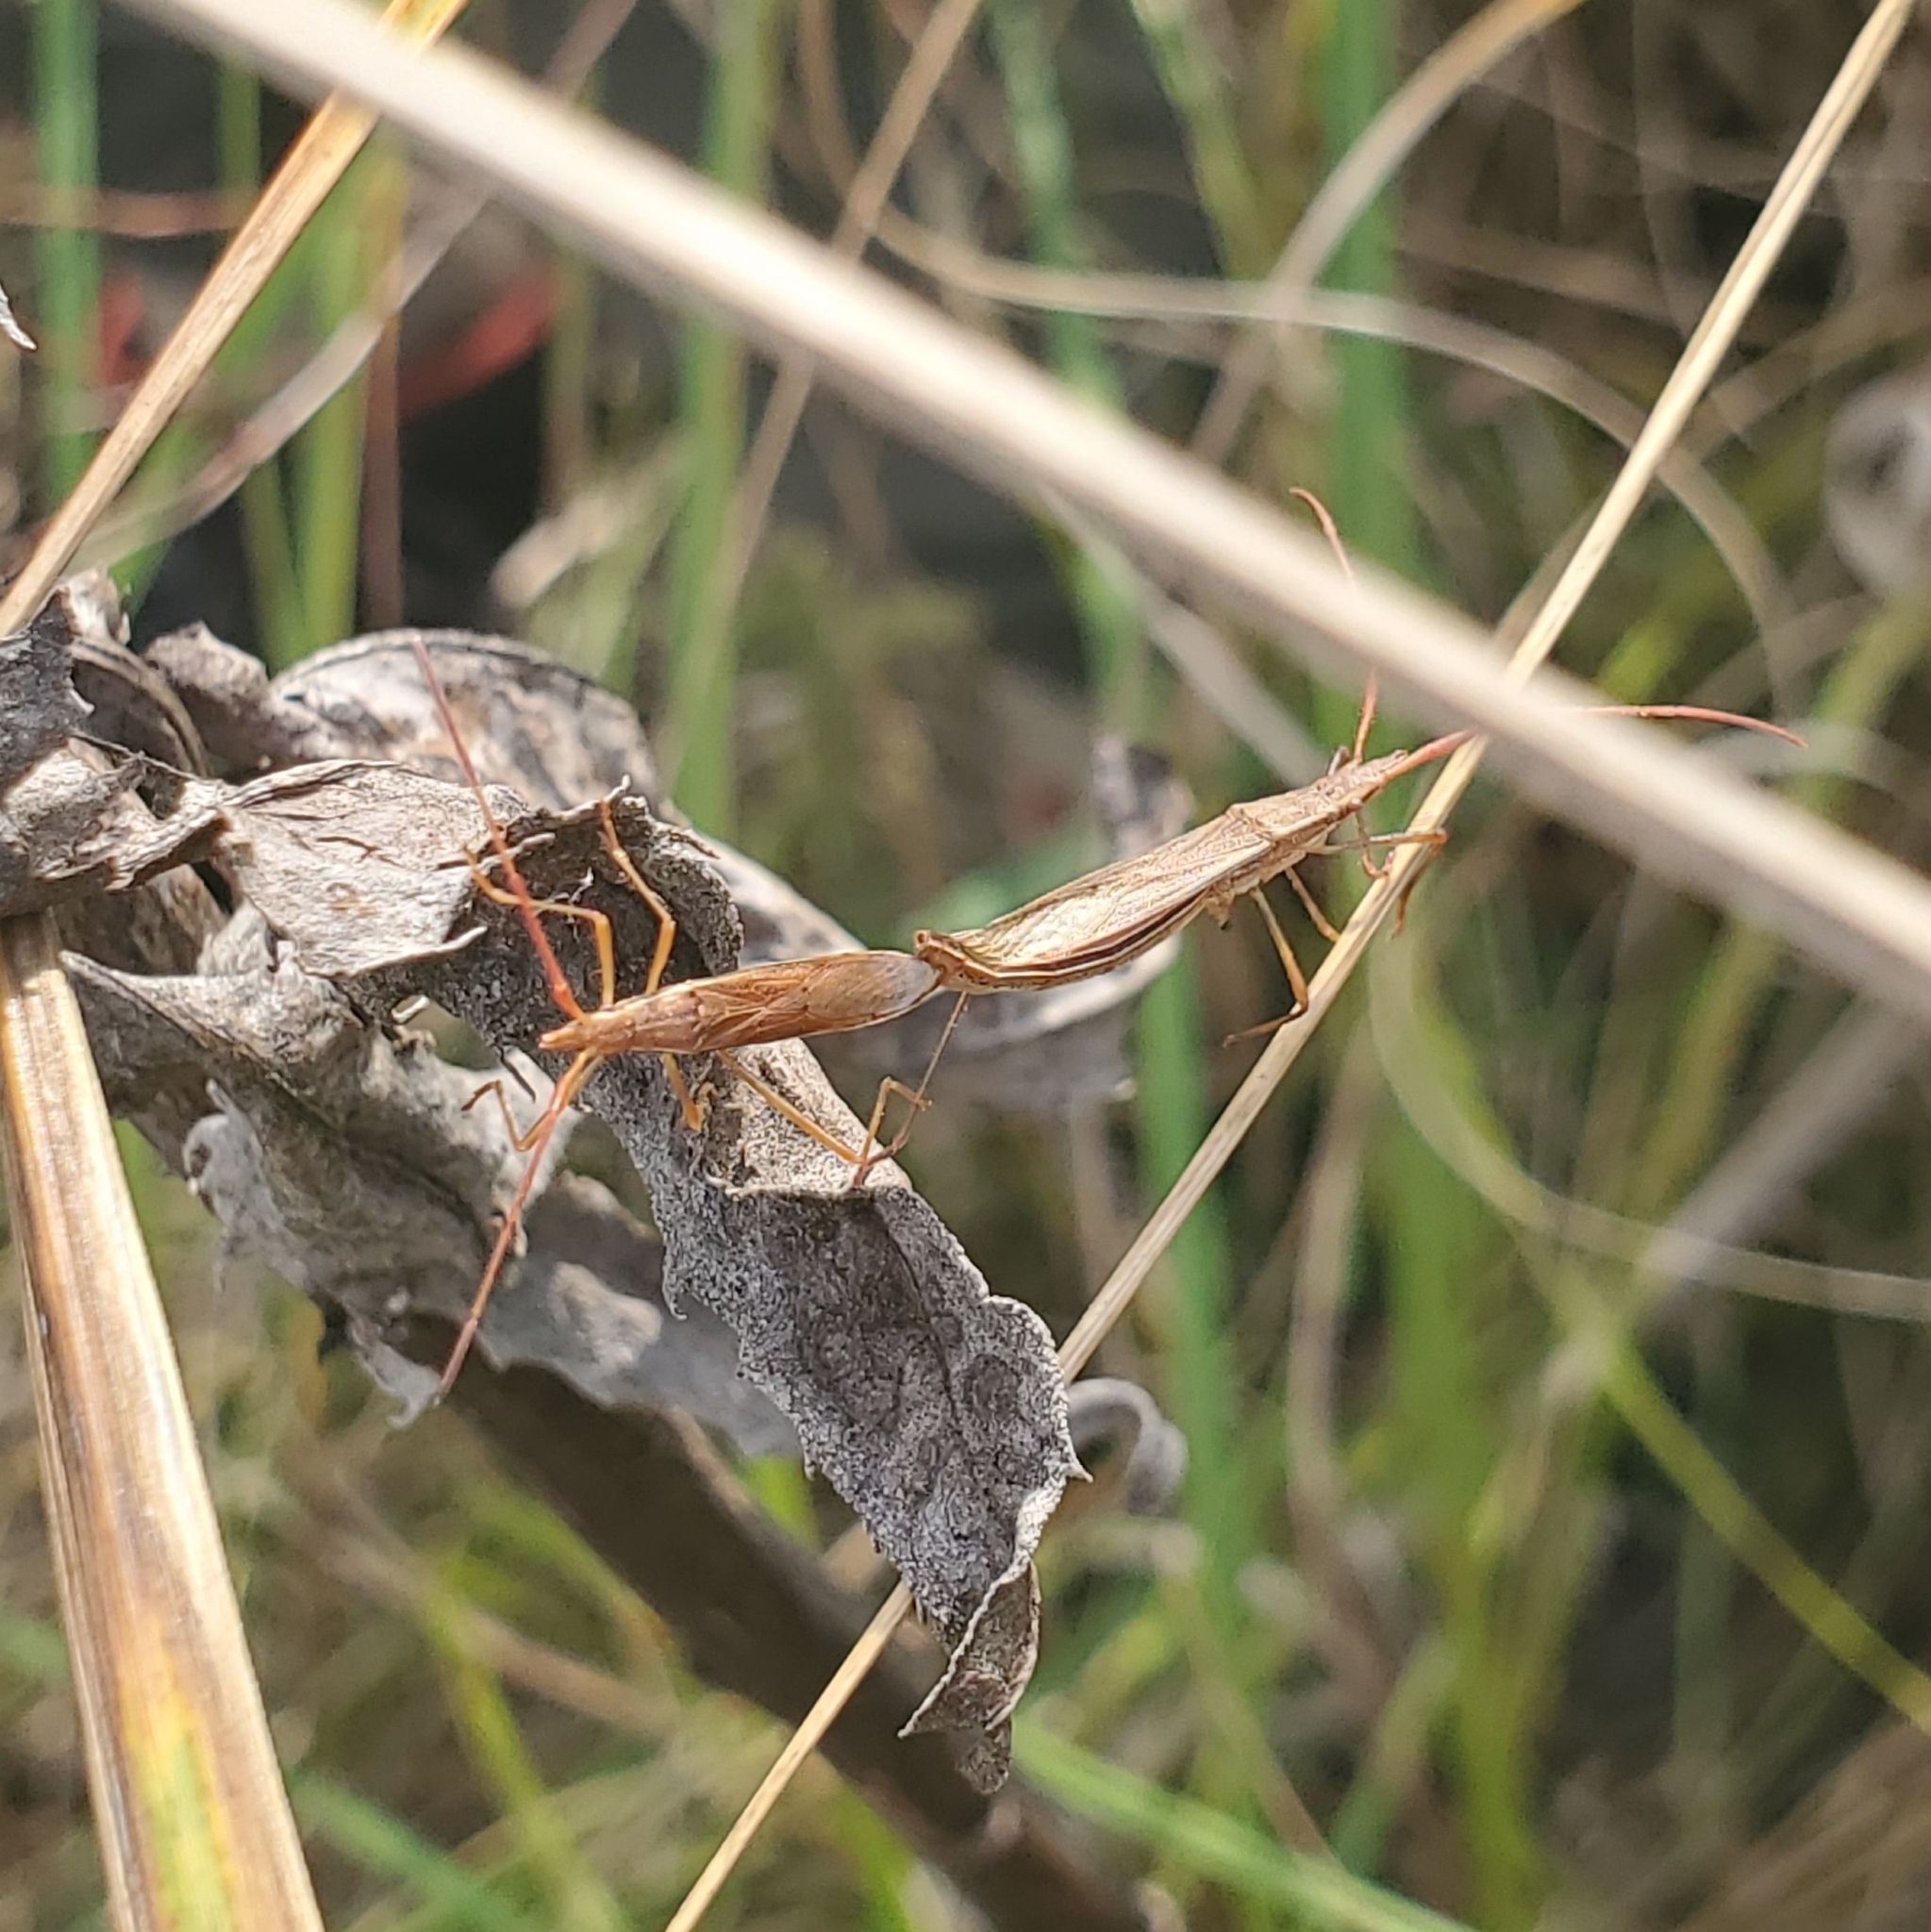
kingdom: Animalia
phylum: Arthropoda
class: Insecta
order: Hemiptera
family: Alydidae
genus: Protenor
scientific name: Protenor belfragei
